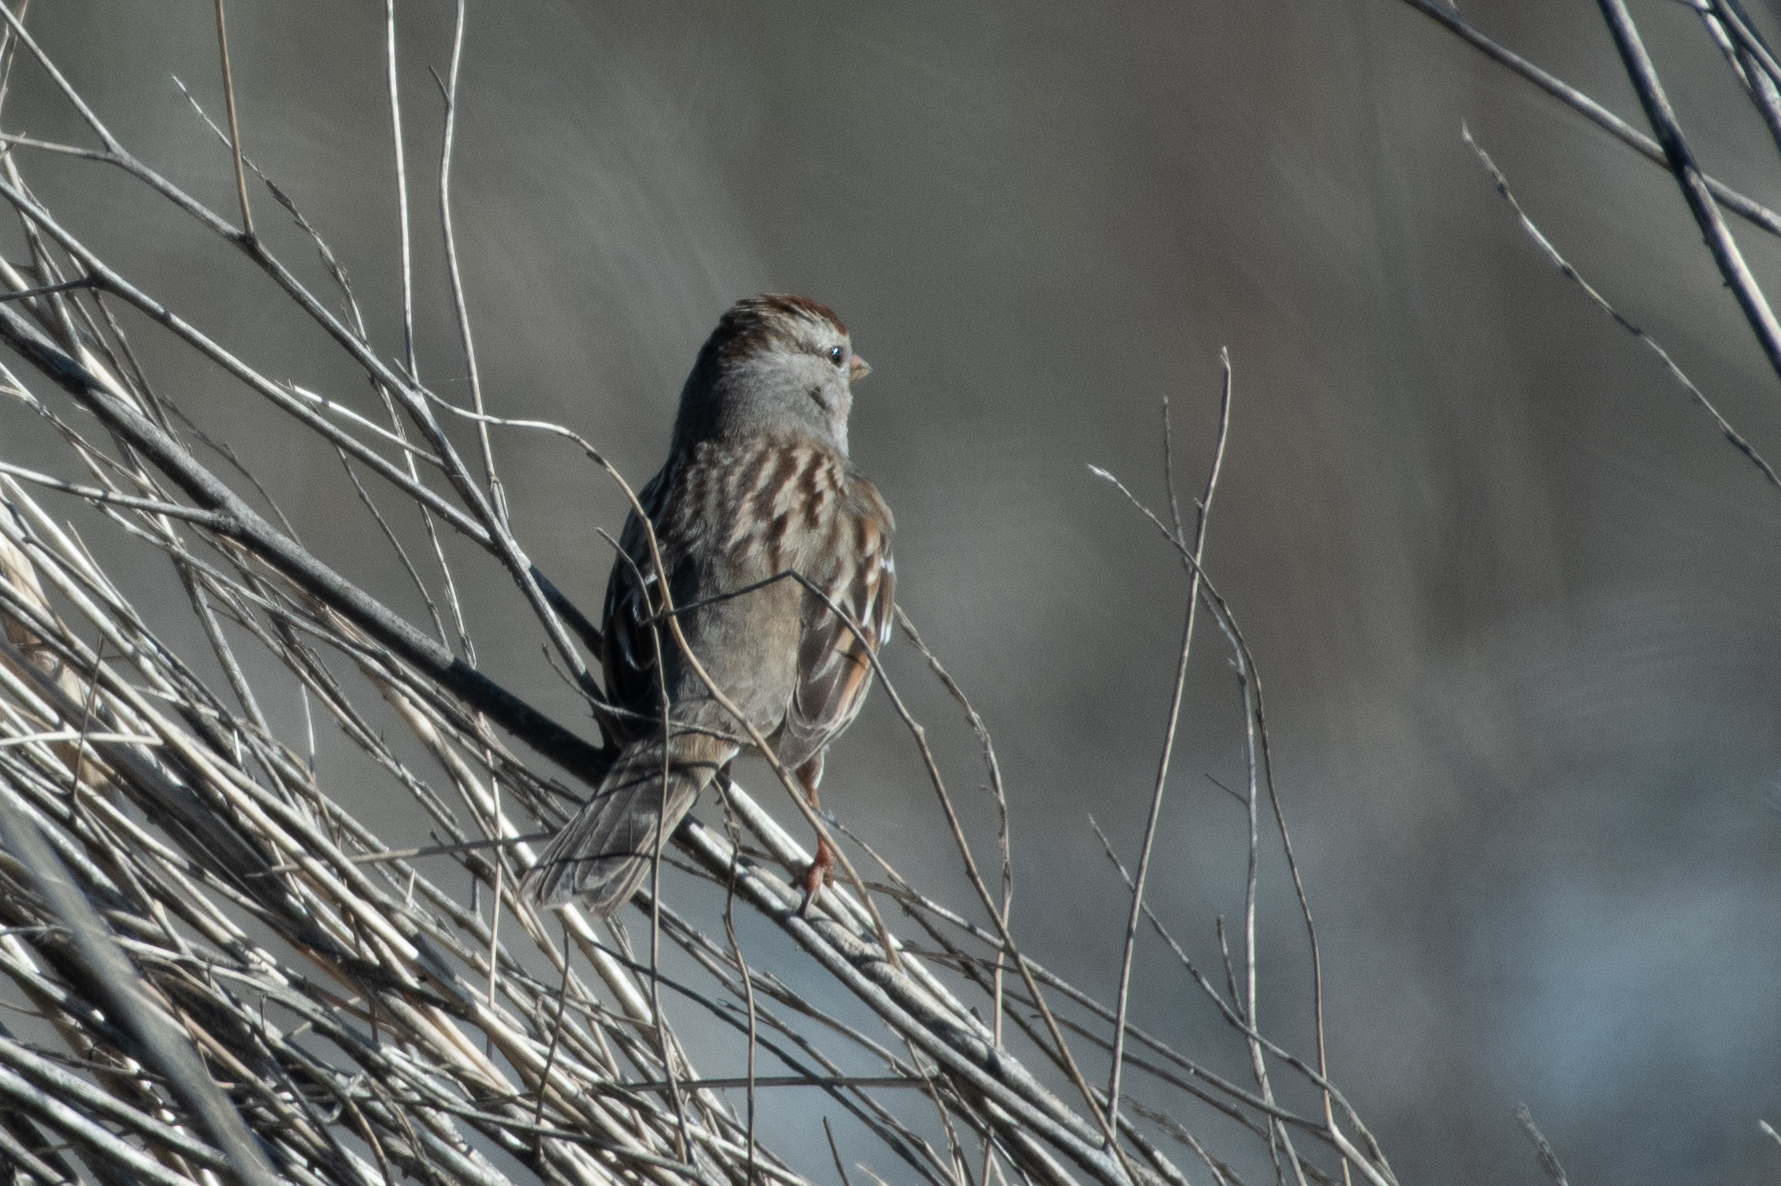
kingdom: Animalia
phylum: Chordata
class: Aves
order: Passeriformes
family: Passerellidae
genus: Zonotrichia
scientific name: Zonotrichia leucophrys
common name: White-crowned sparrow
